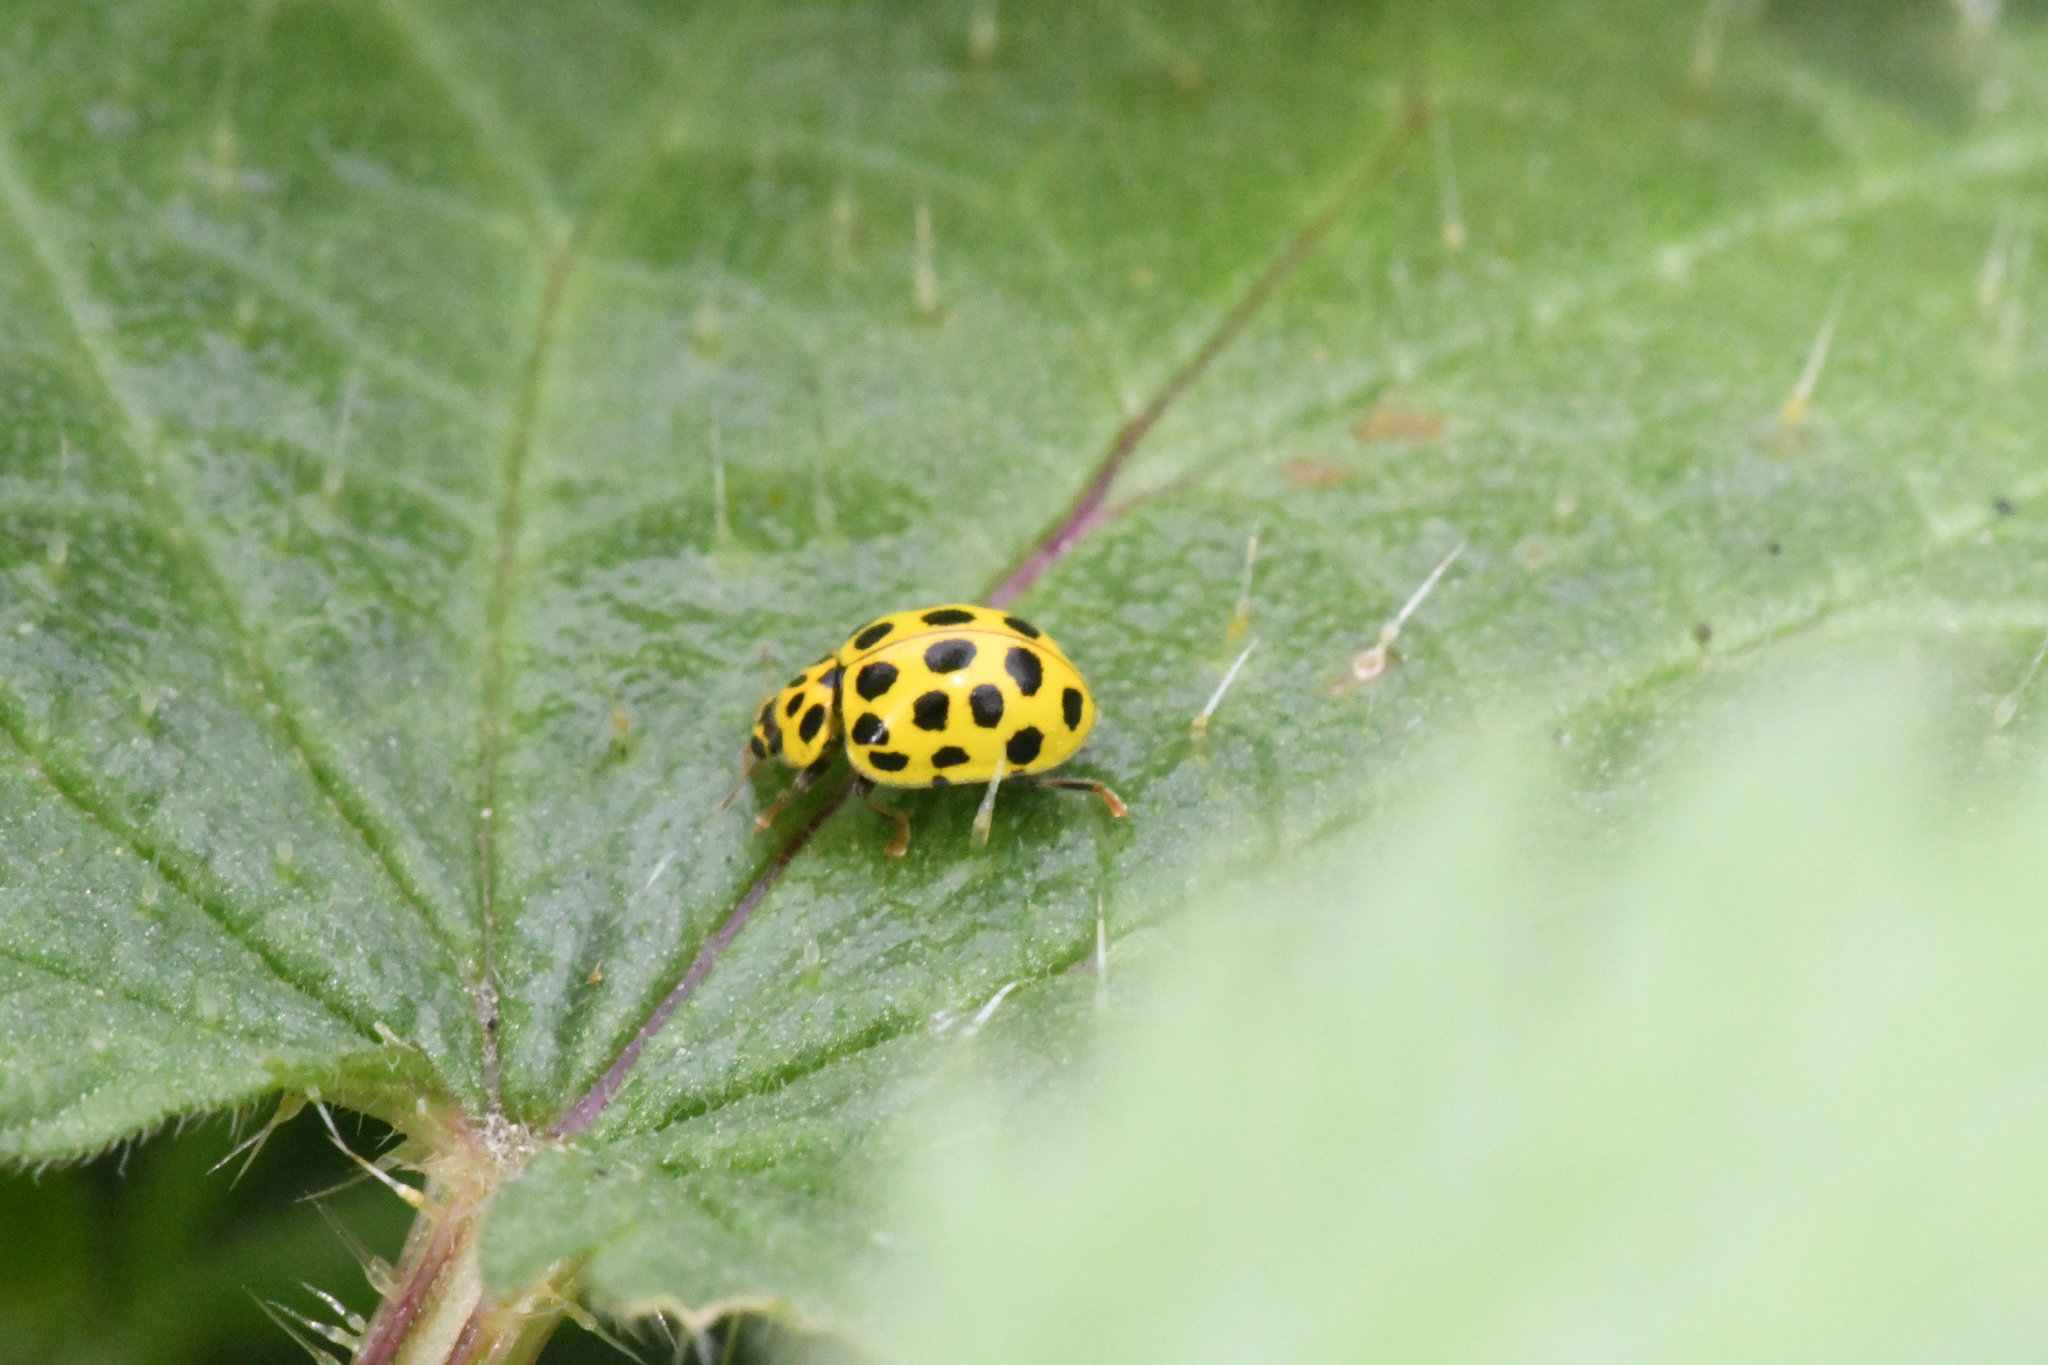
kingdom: Animalia
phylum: Arthropoda
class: Insecta
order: Coleoptera
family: Coccinellidae
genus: Psyllobora
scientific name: Psyllobora vigintiduopunctata
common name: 22-spot ladybird
